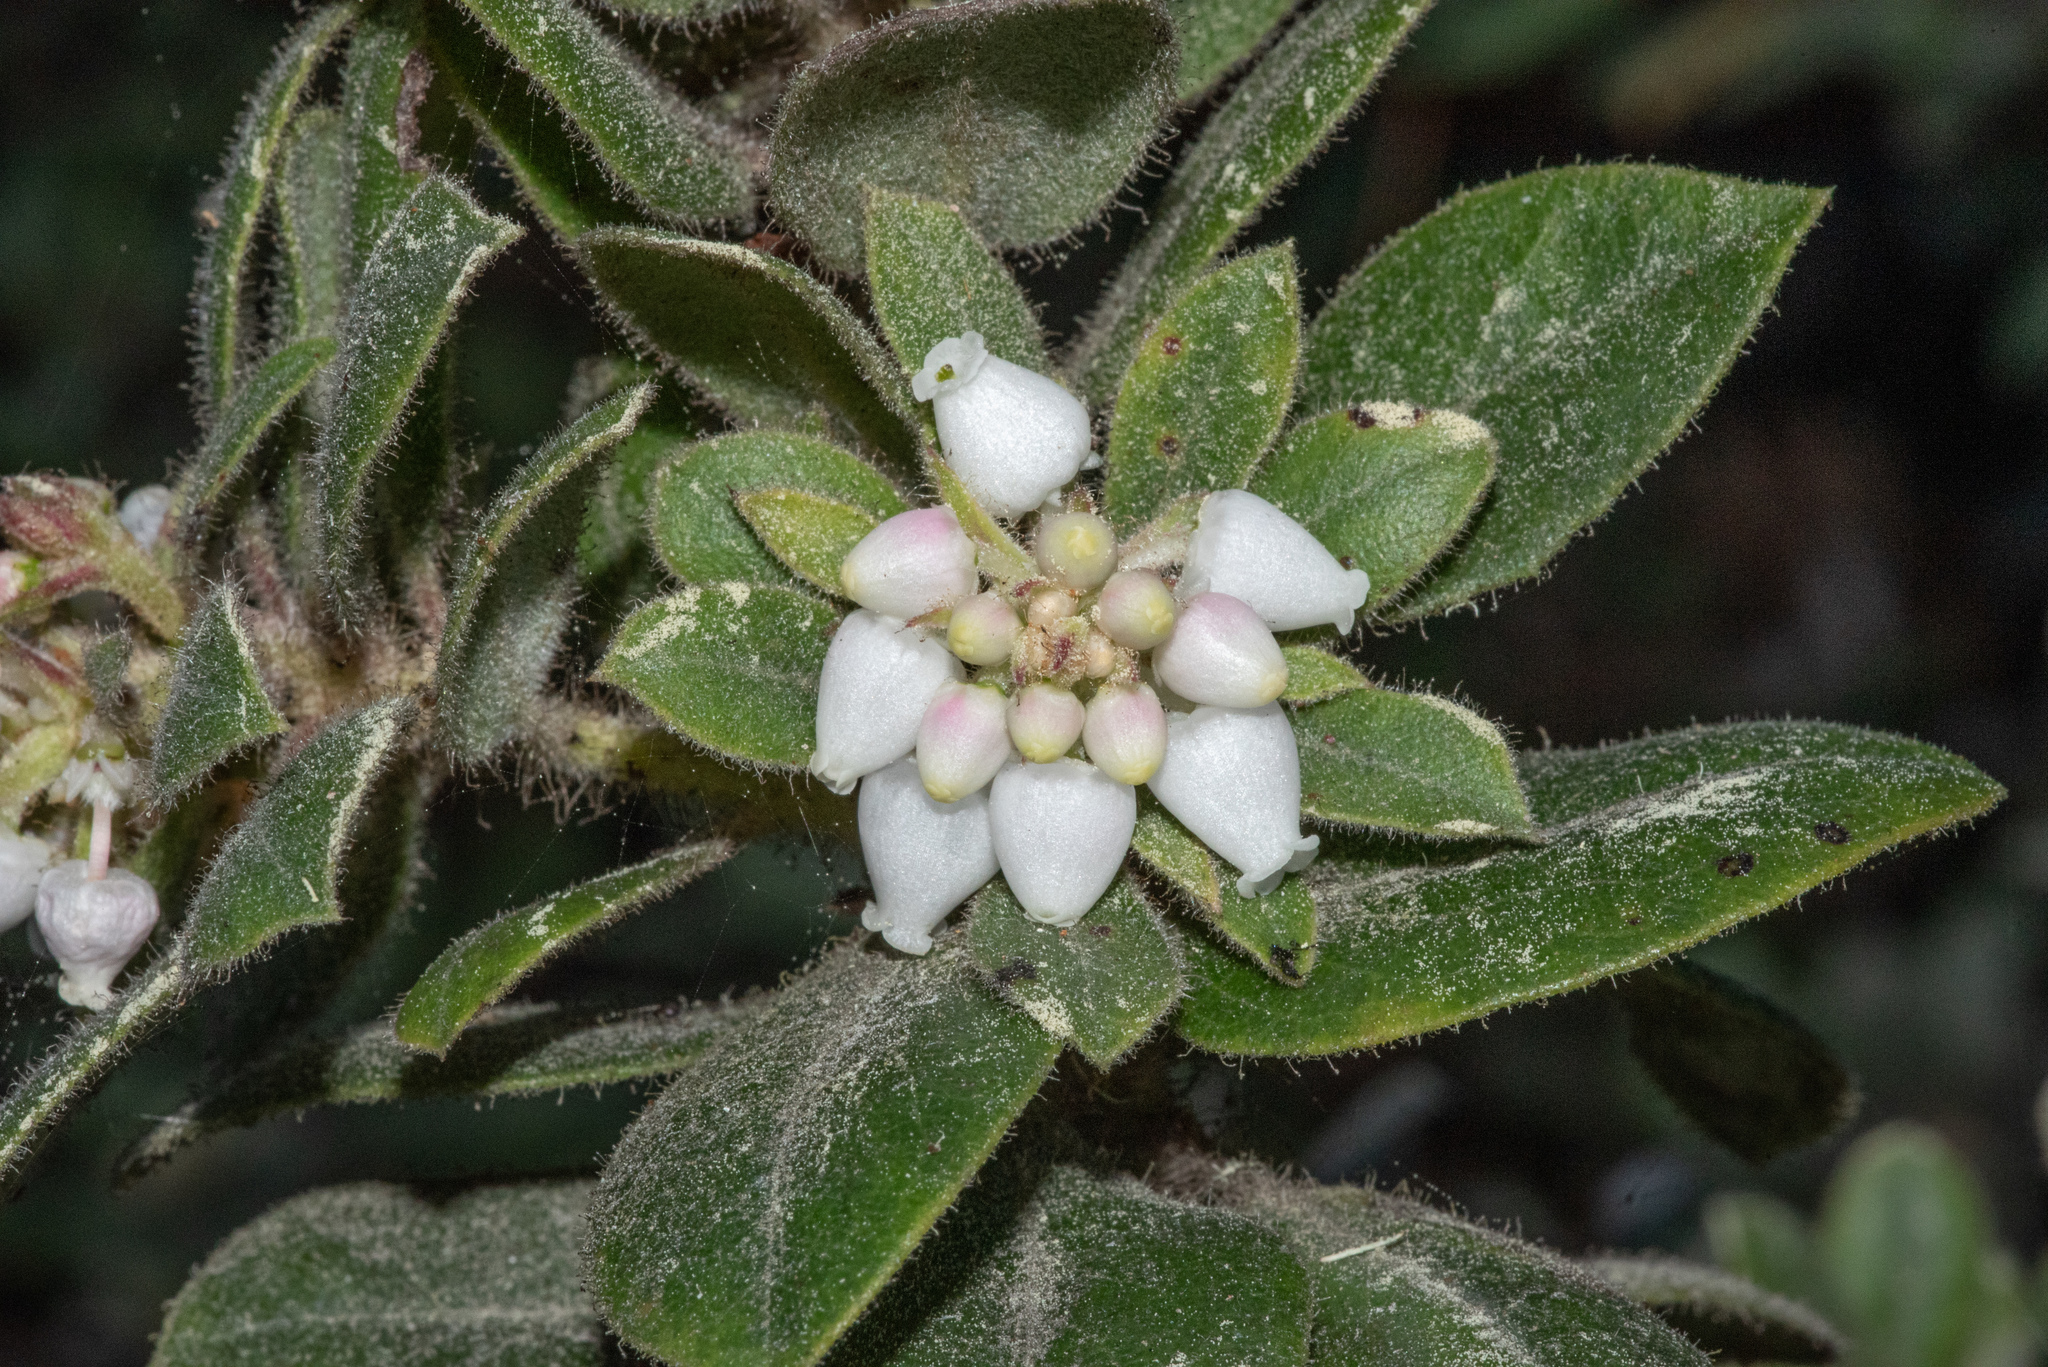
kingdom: Plantae
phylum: Tracheophyta
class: Magnoliopsida
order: Ericales
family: Ericaceae
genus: Arctostaphylos
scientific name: Arctostaphylos tomentosa
